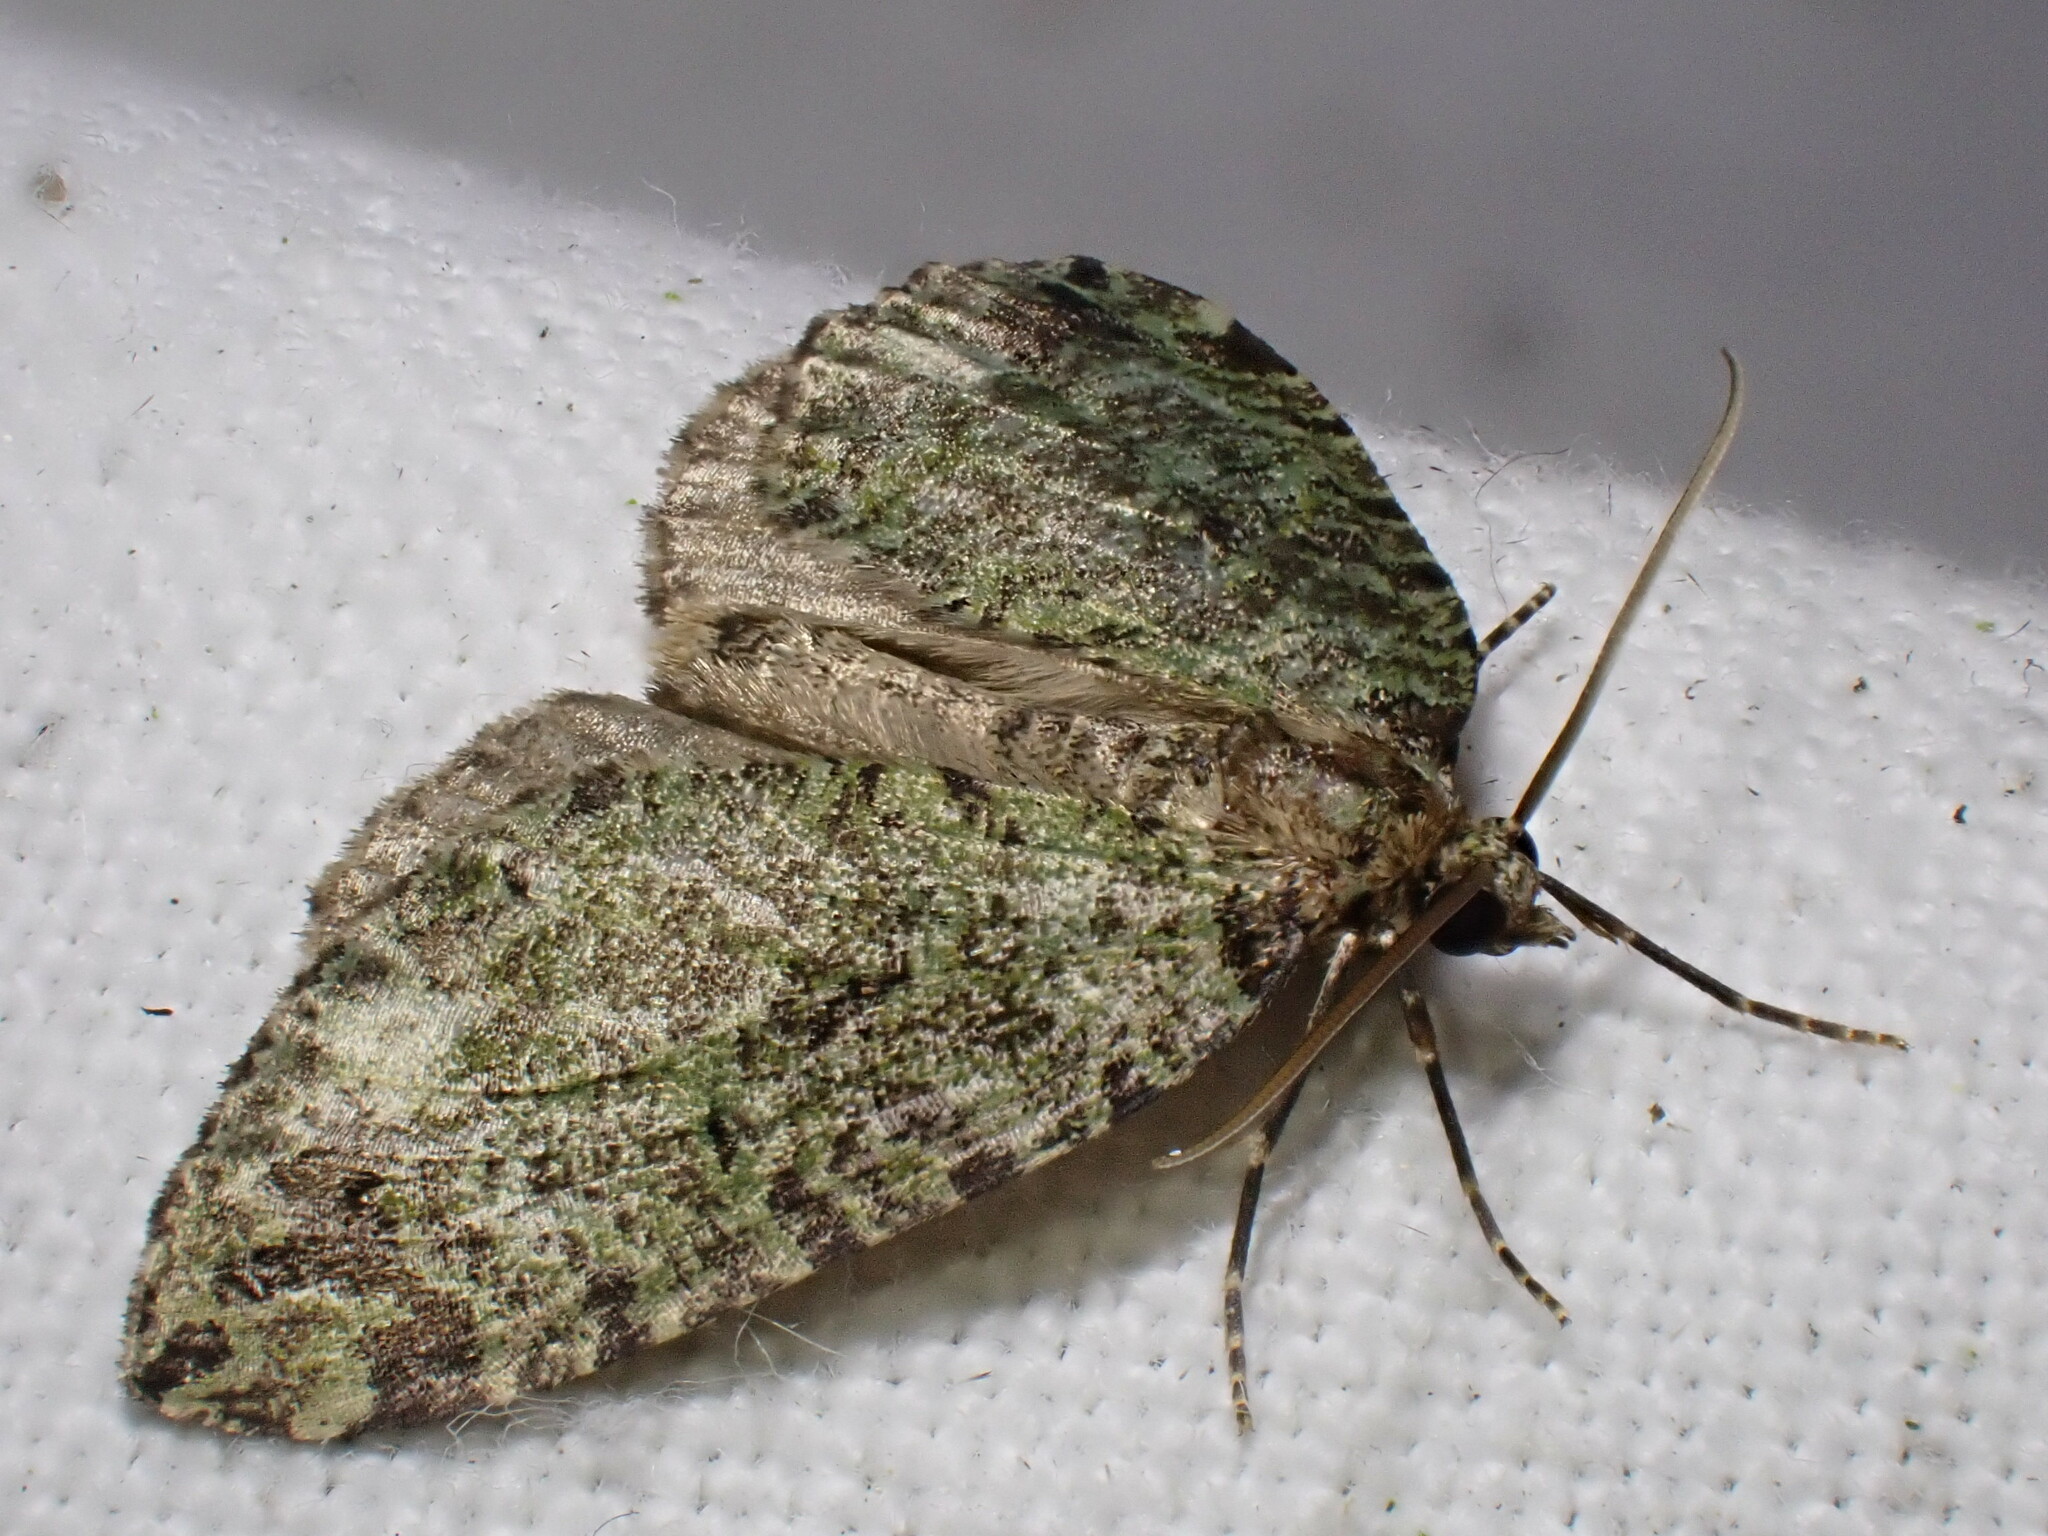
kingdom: Animalia
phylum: Arthropoda
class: Insecta
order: Lepidoptera
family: Geometridae
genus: Hydriomena
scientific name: Hydriomena furcata
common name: July highflyer
